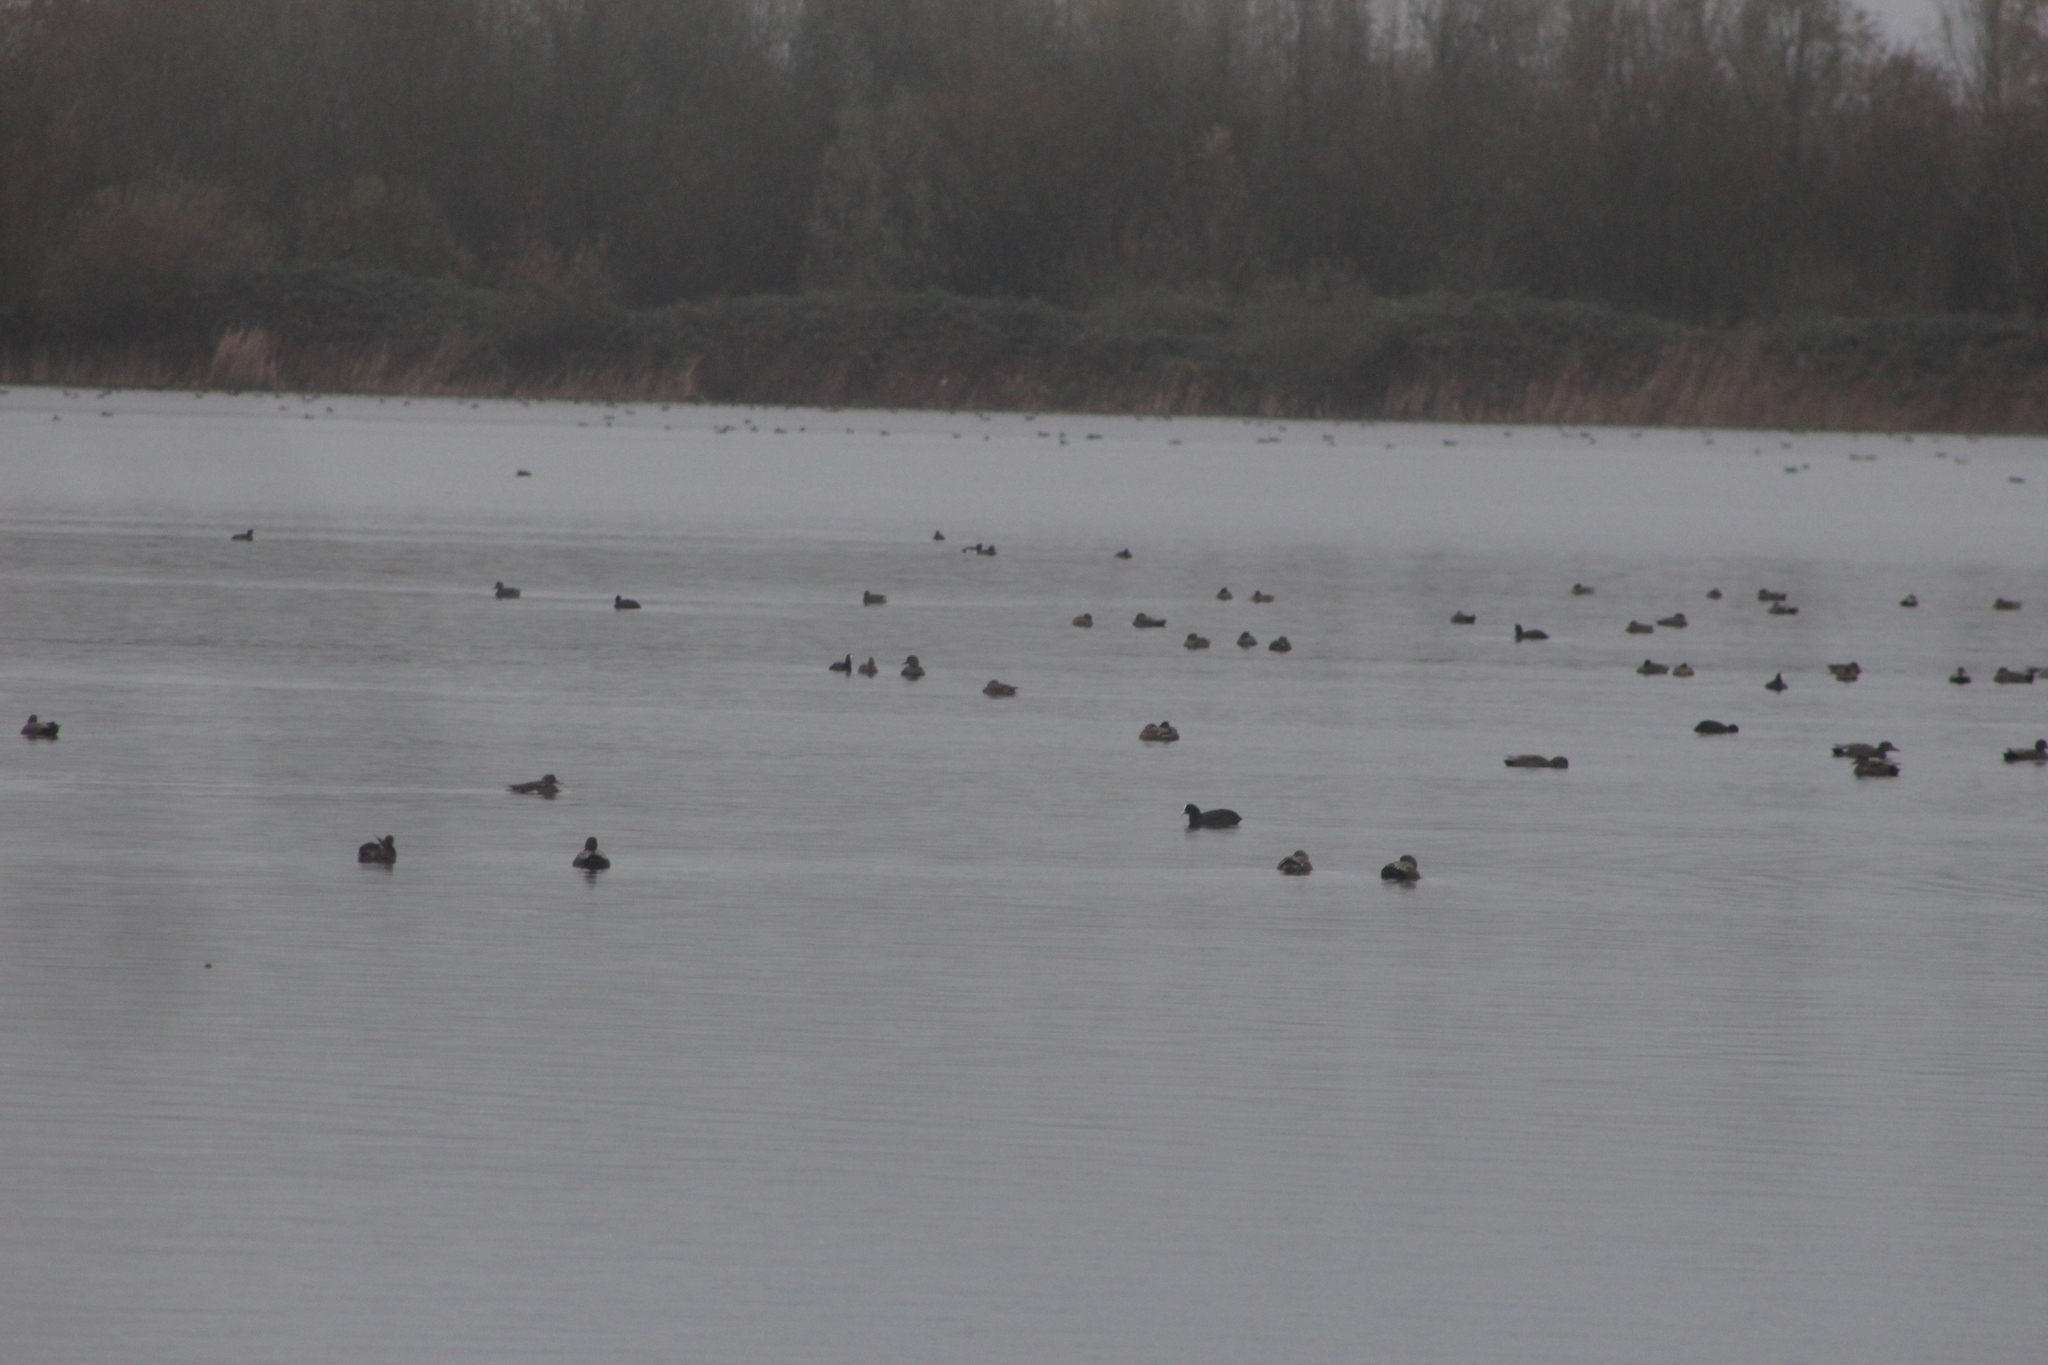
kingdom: Animalia
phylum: Chordata
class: Aves
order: Anseriformes
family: Anatidae
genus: Mareca
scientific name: Mareca strepera
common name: Gadwall
